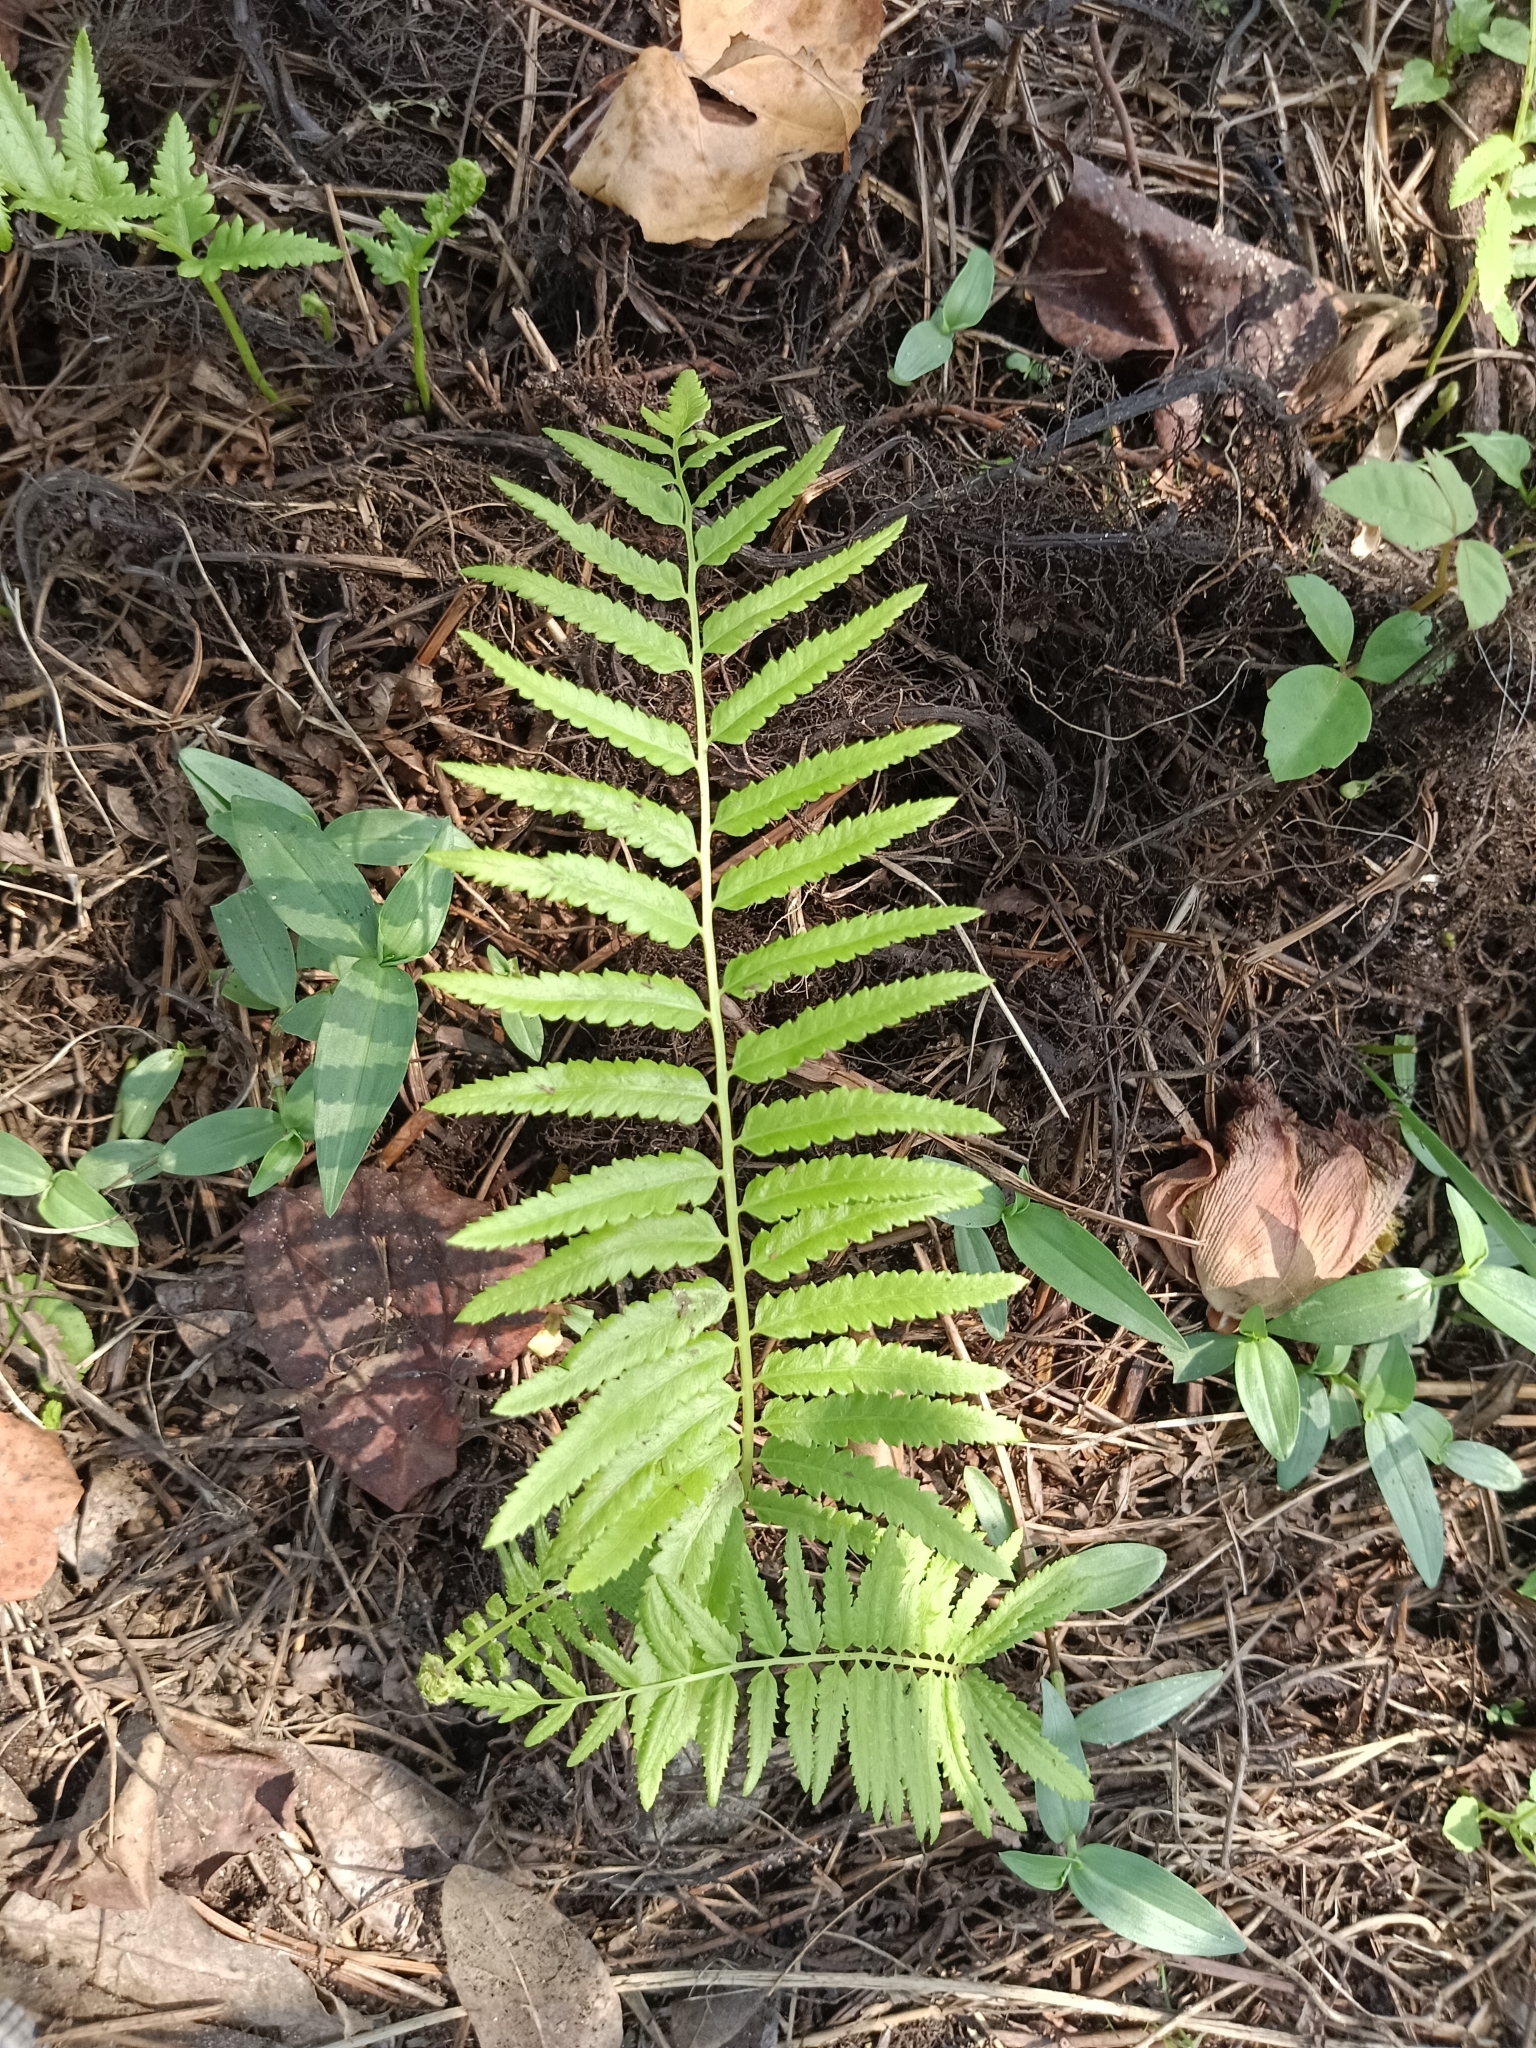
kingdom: Plantae
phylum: Tracheophyta
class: Polypodiopsida
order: Polypodiales
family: Thelypteridaceae
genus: Cyclosorus
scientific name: Cyclosorus interruptus
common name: Neke fern
